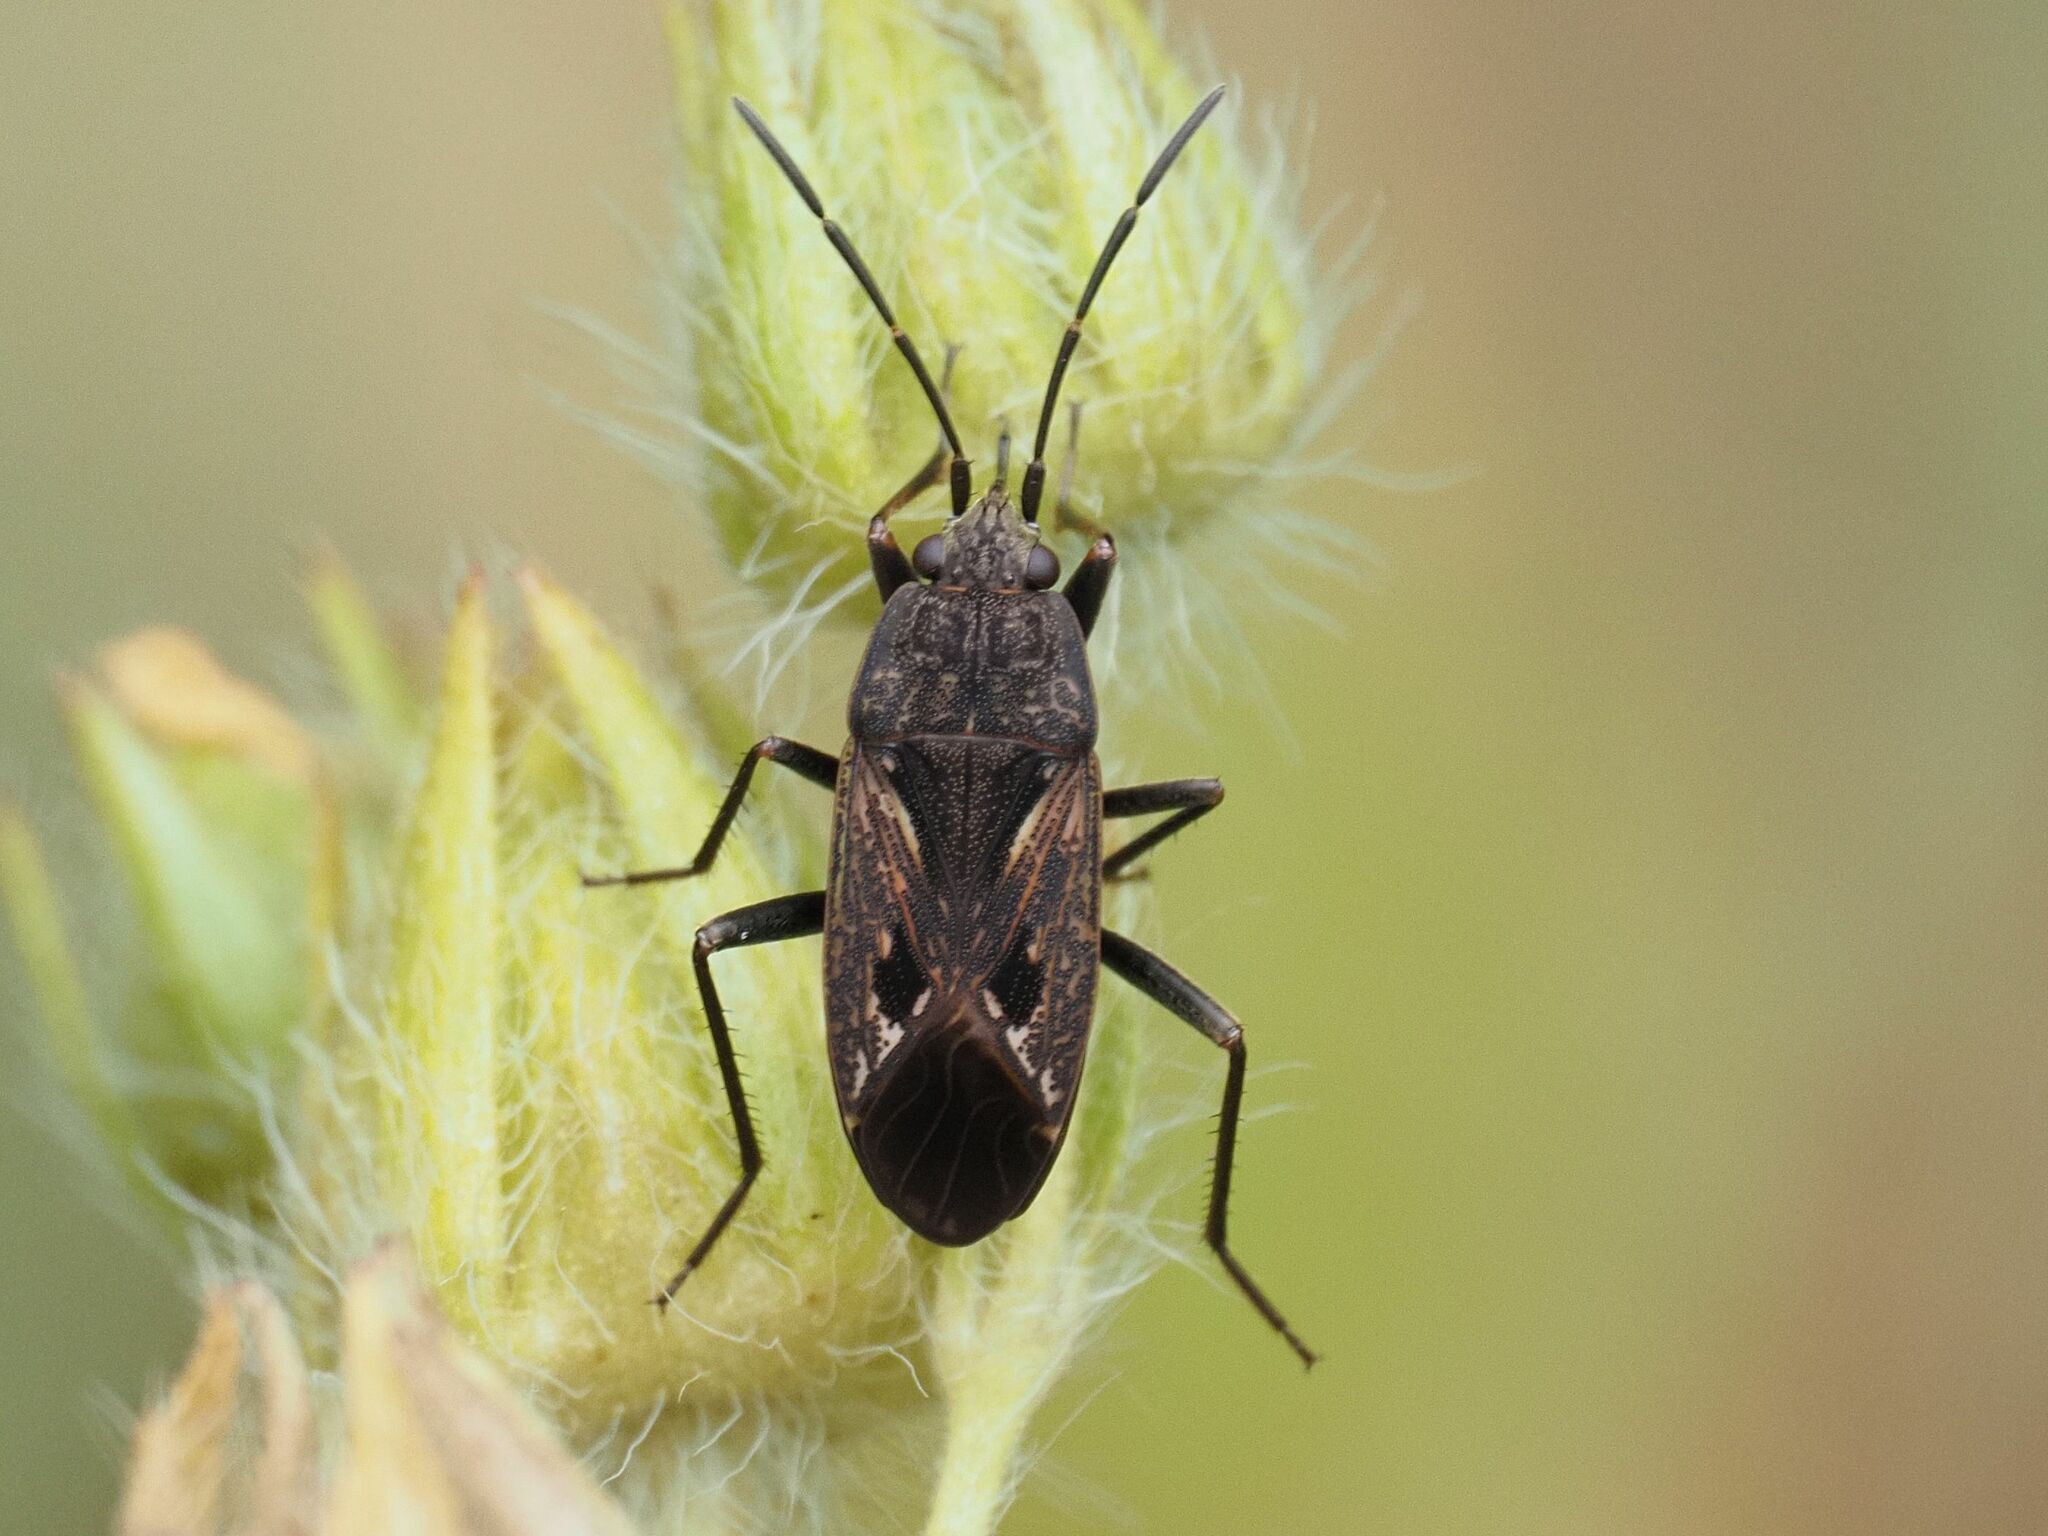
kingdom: Animalia
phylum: Arthropoda
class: Insecta
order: Hemiptera
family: Rhyparochromidae
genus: Rhyparochromus
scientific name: Rhyparochromus pini
